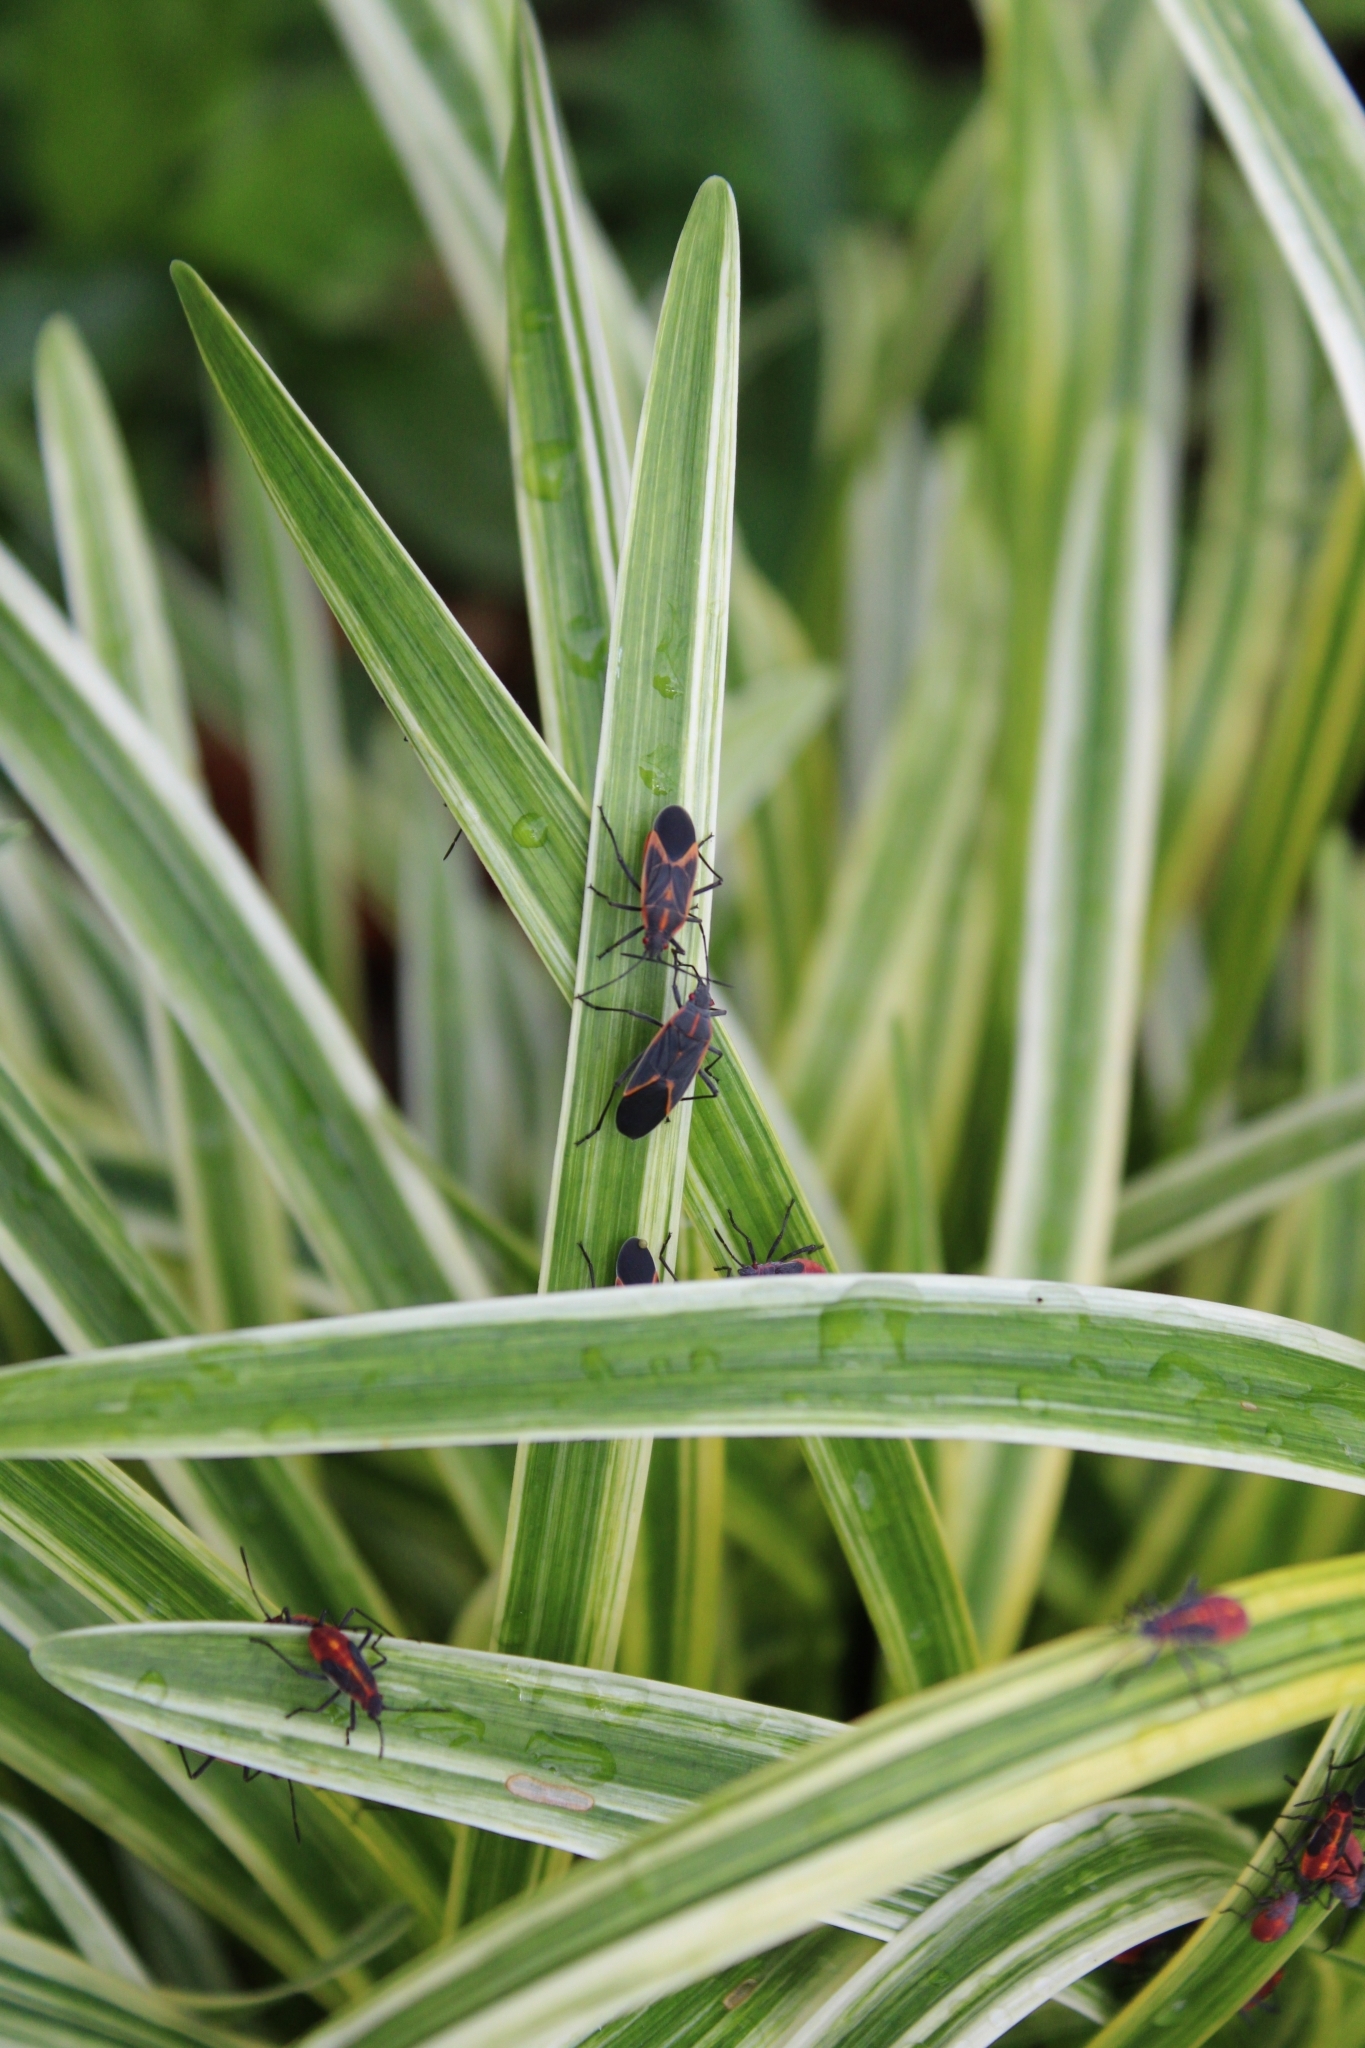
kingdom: Animalia
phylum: Arthropoda
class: Insecta
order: Hemiptera
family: Rhopalidae
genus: Boisea
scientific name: Boisea trivittata
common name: Boxelder bug
